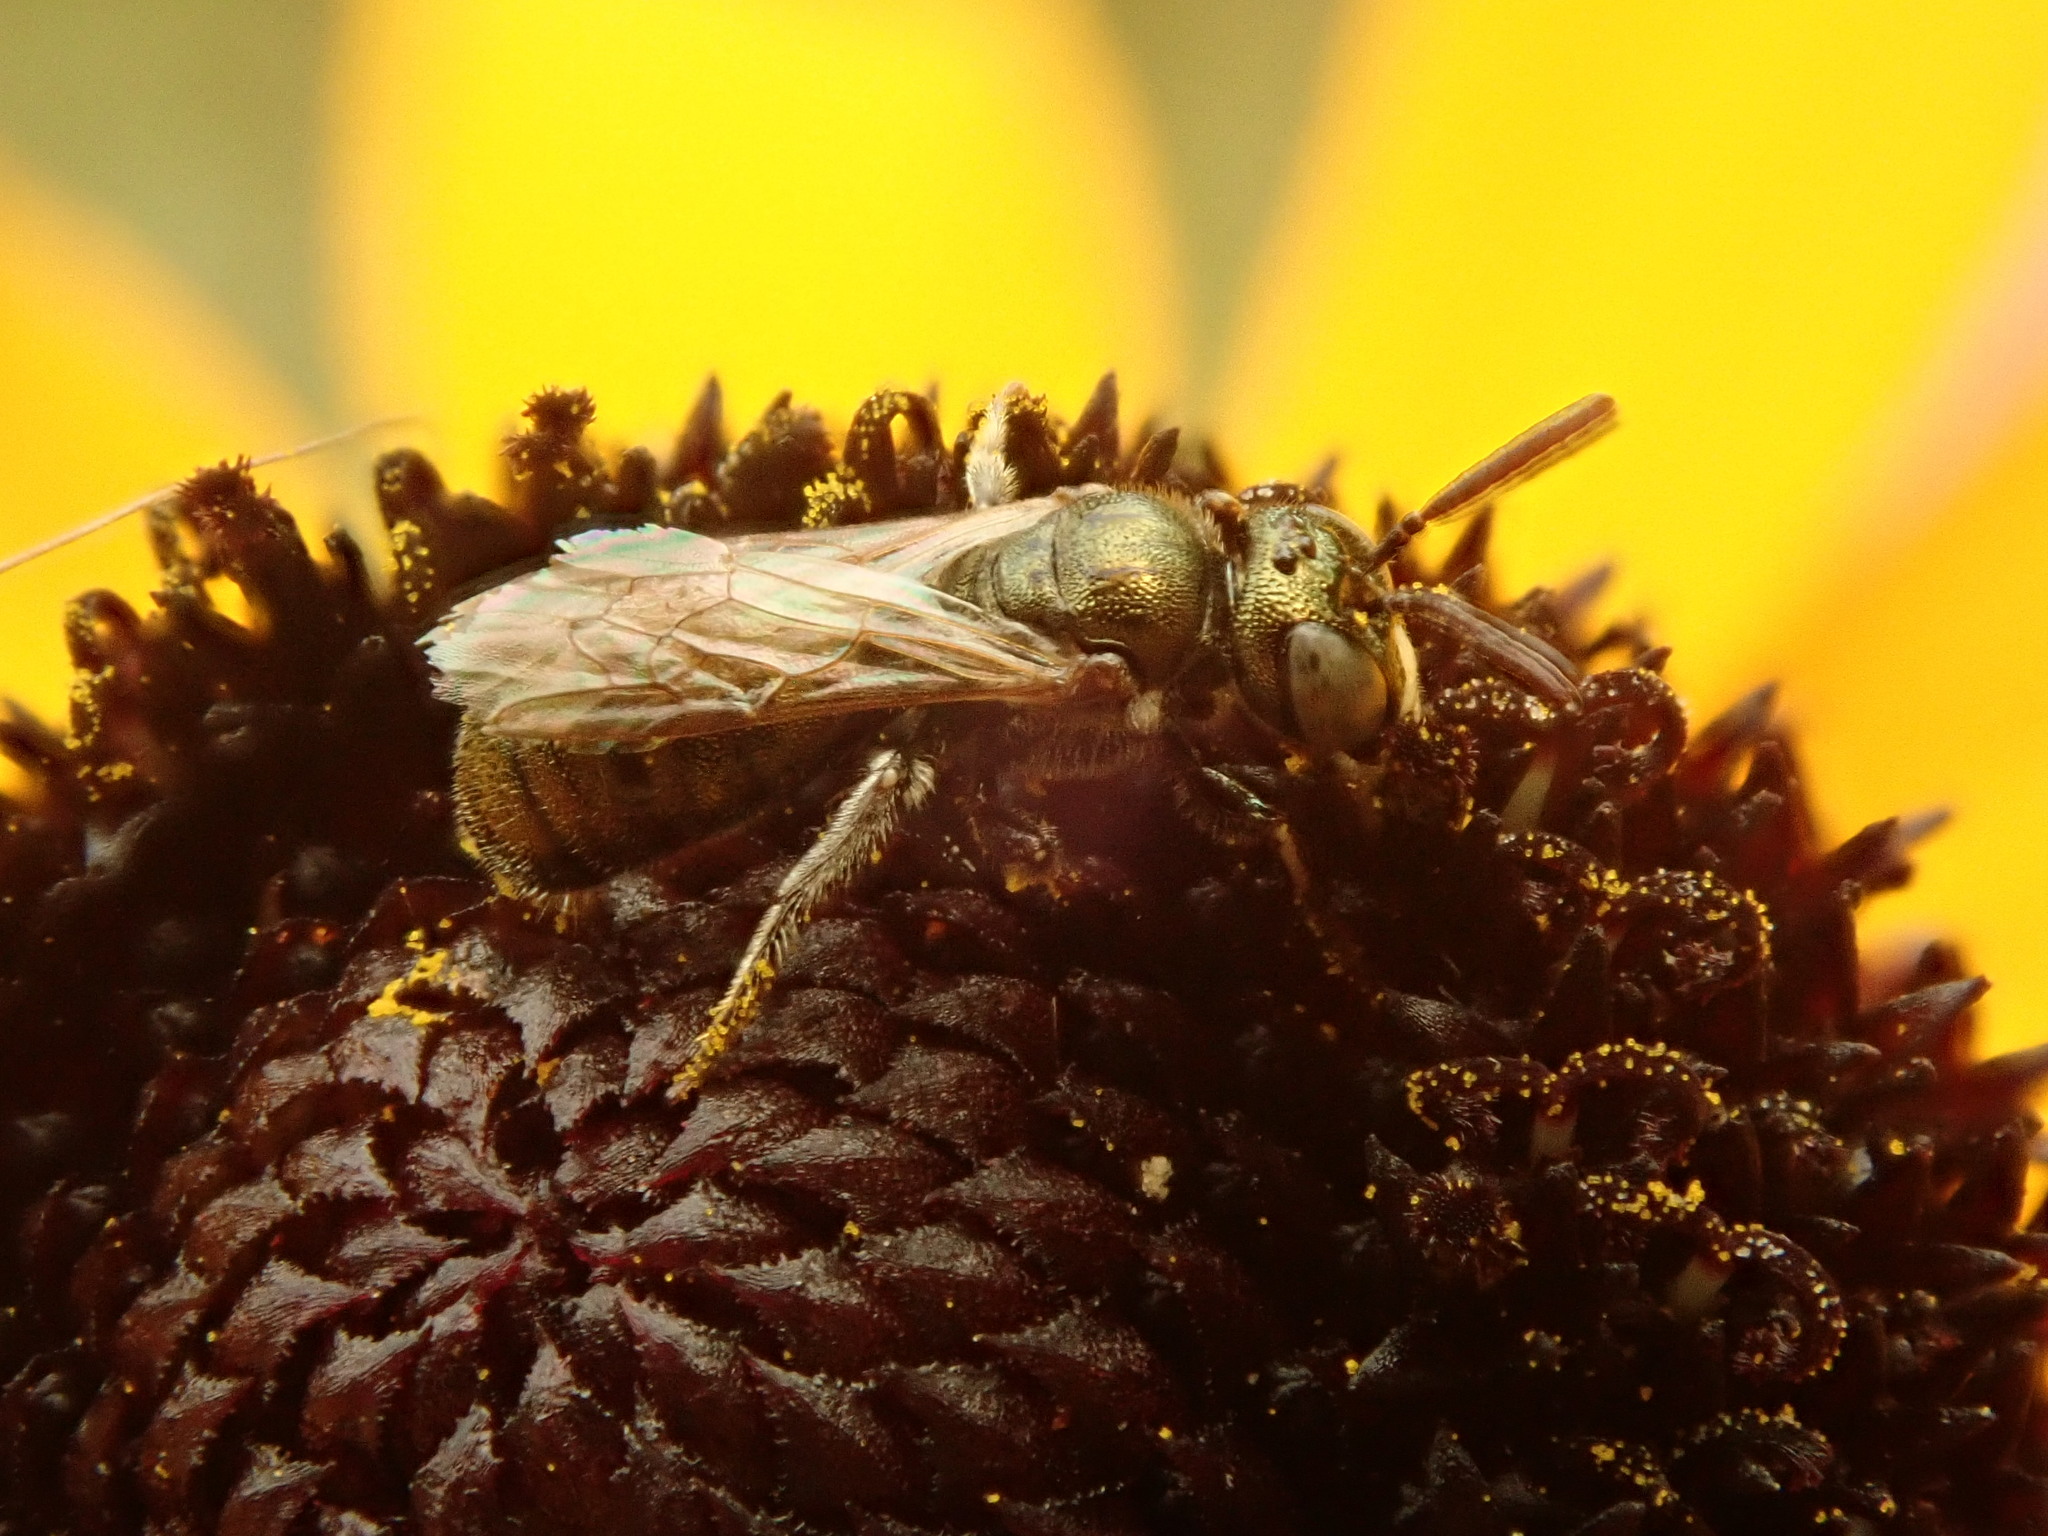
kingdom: Animalia
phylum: Arthropoda
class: Insecta
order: Hymenoptera
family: Apidae
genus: Zadontomerus
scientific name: Zadontomerus
